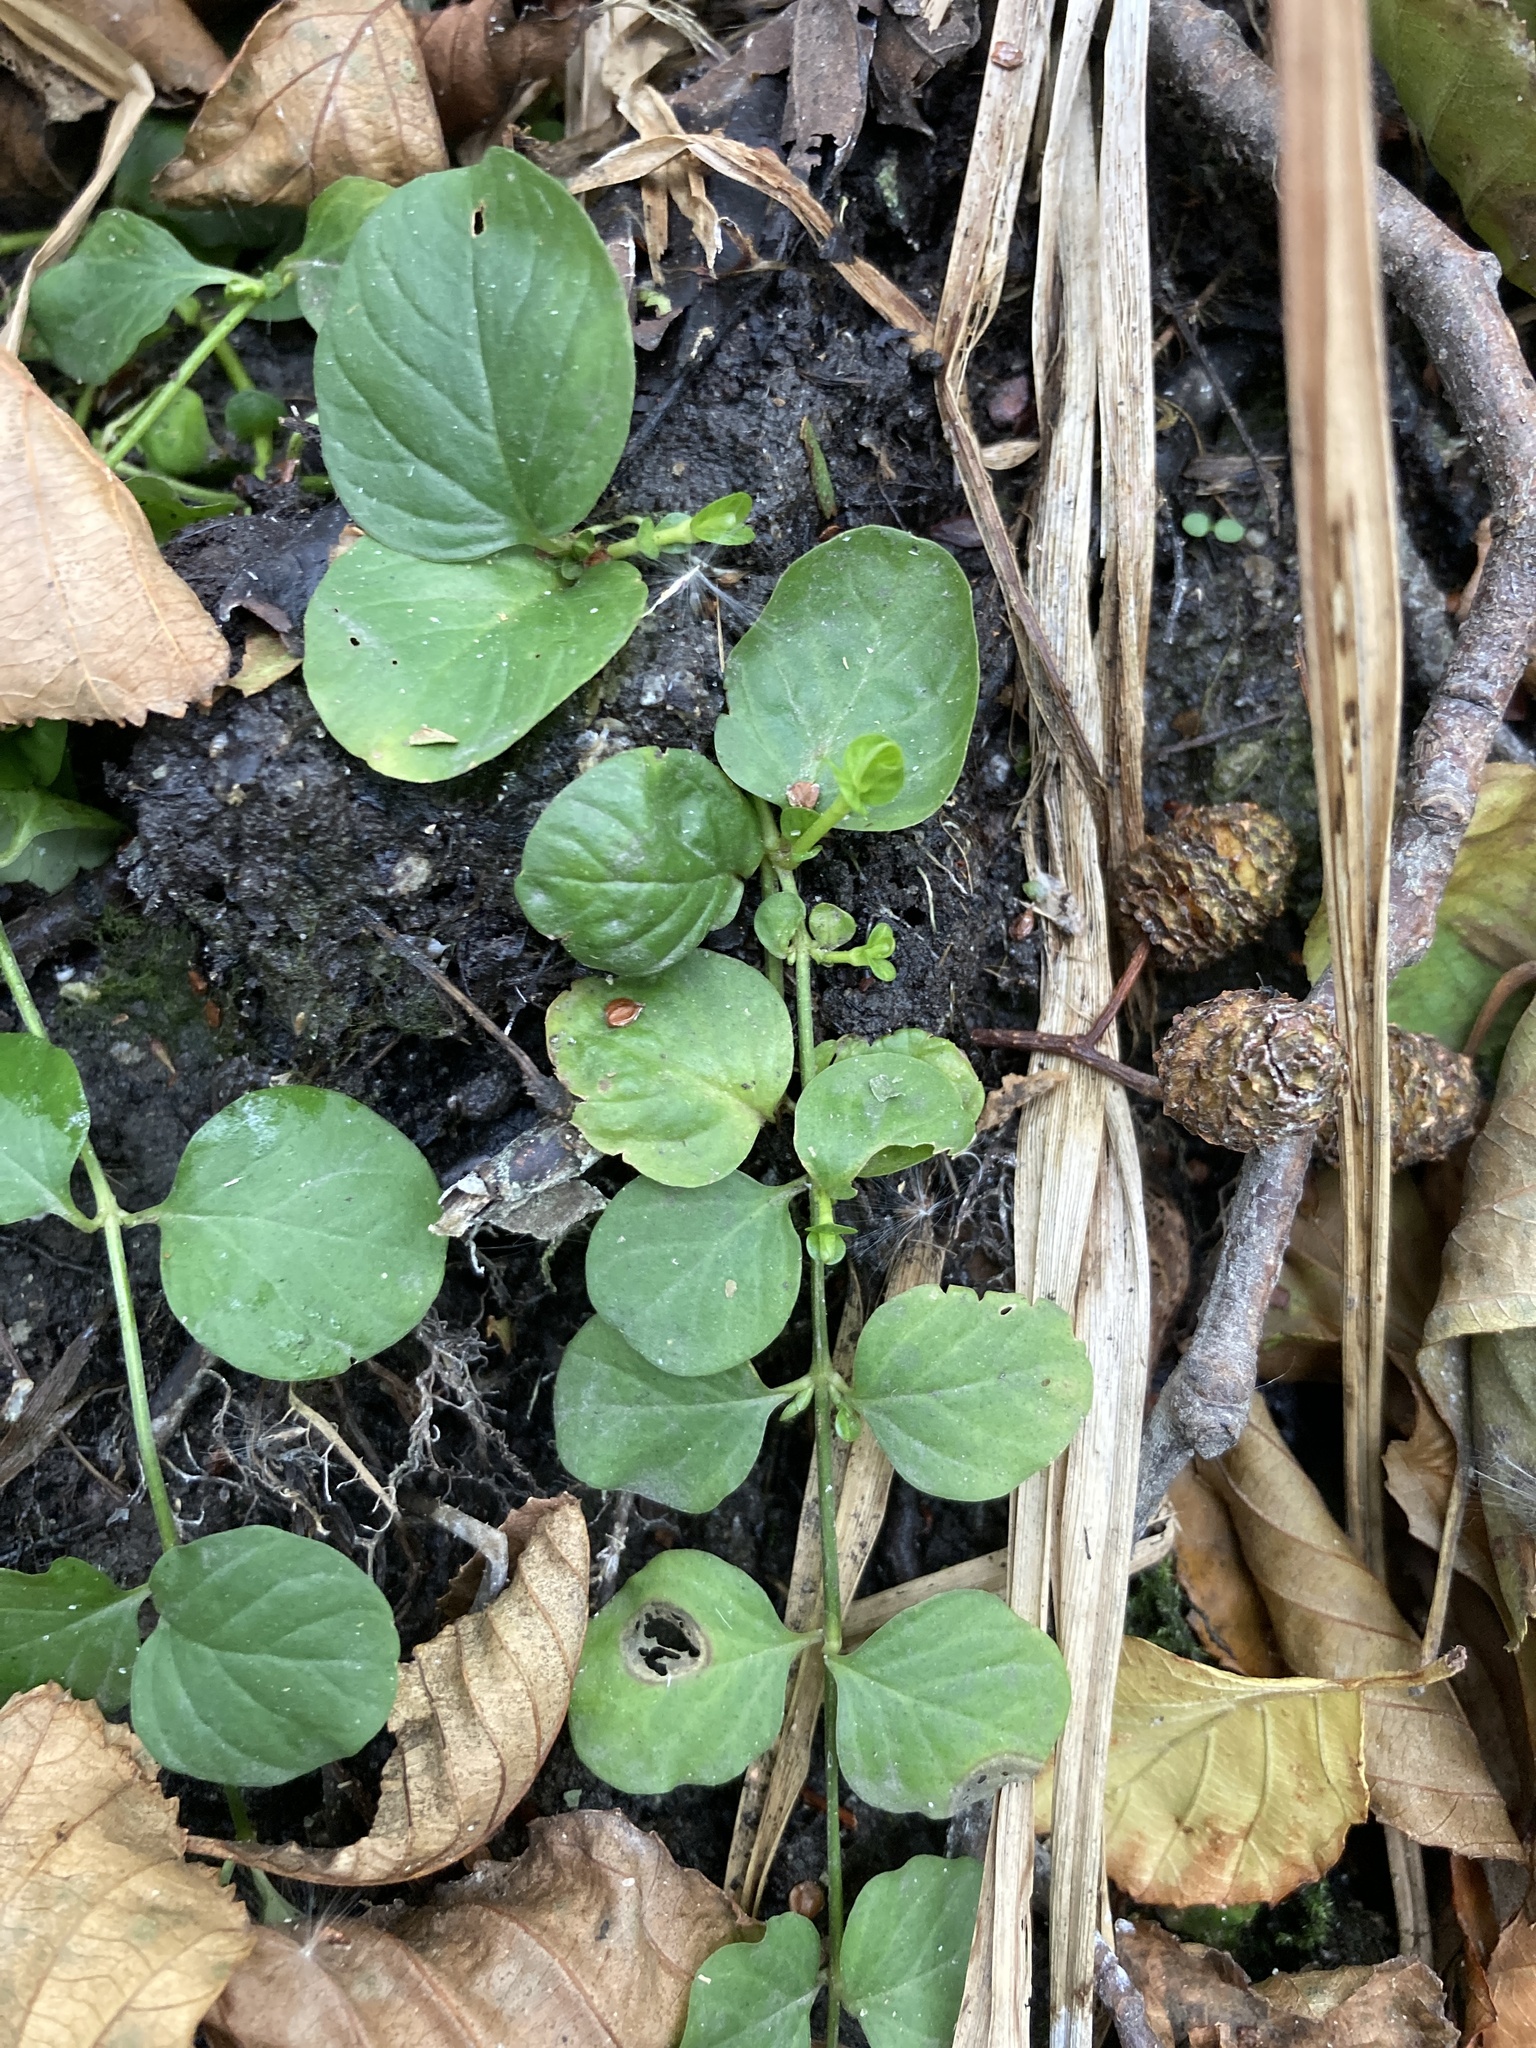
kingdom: Plantae
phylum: Tracheophyta
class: Magnoliopsida
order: Ericales
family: Primulaceae
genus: Lysimachia
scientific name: Lysimachia nummularia
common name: Moneywort
